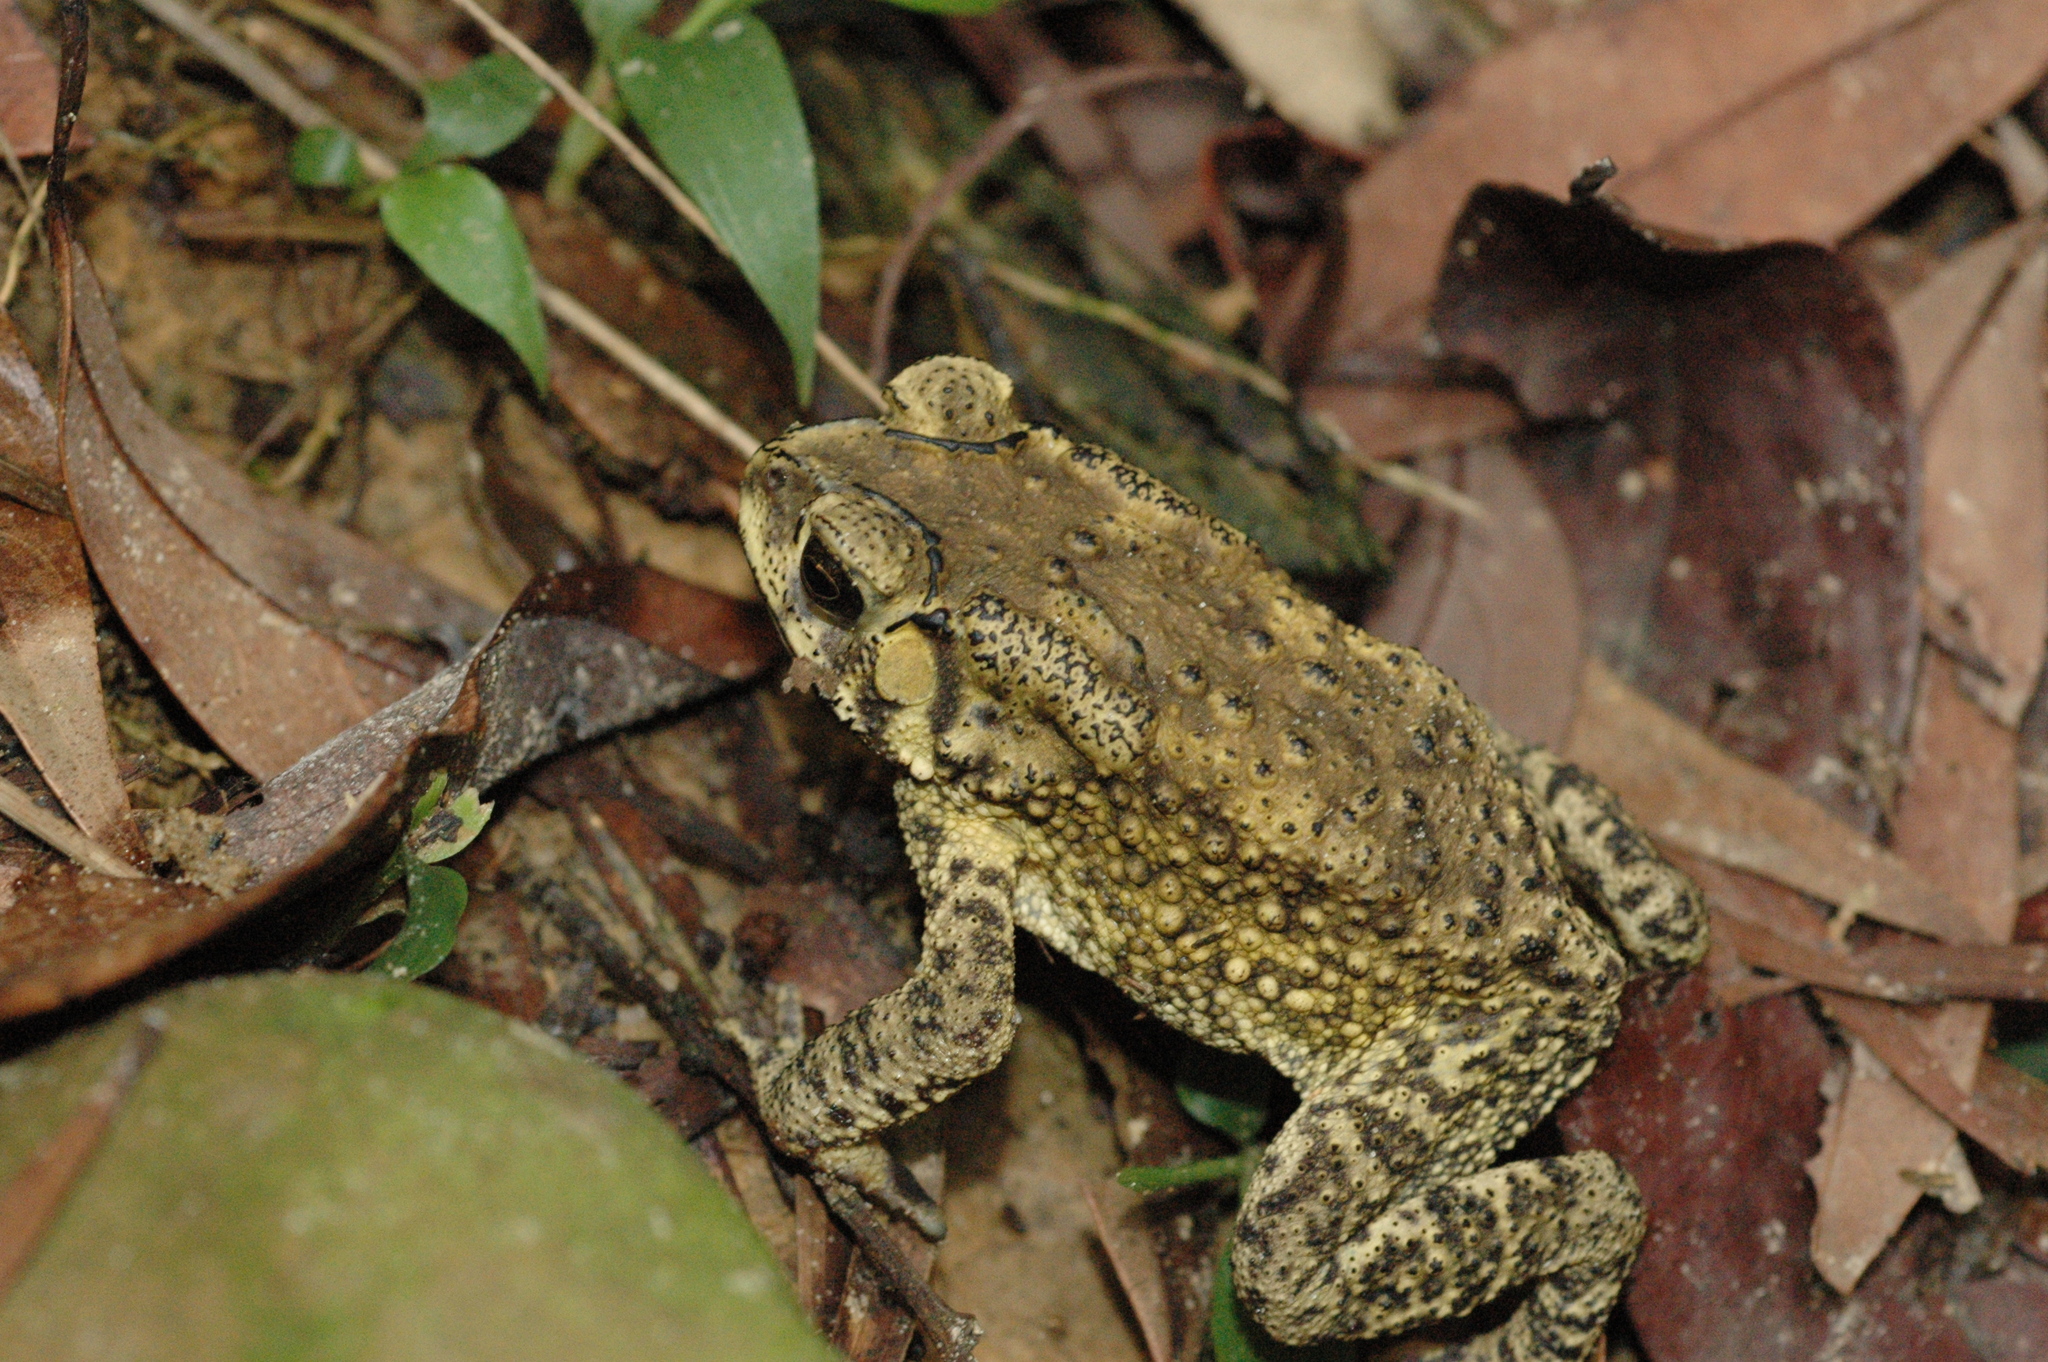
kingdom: Animalia
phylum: Chordata
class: Amphibia
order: Anura
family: Bufonidae
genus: Duttaphrynus
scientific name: Duttaphrynus melanostictus
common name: Common sunda toad
